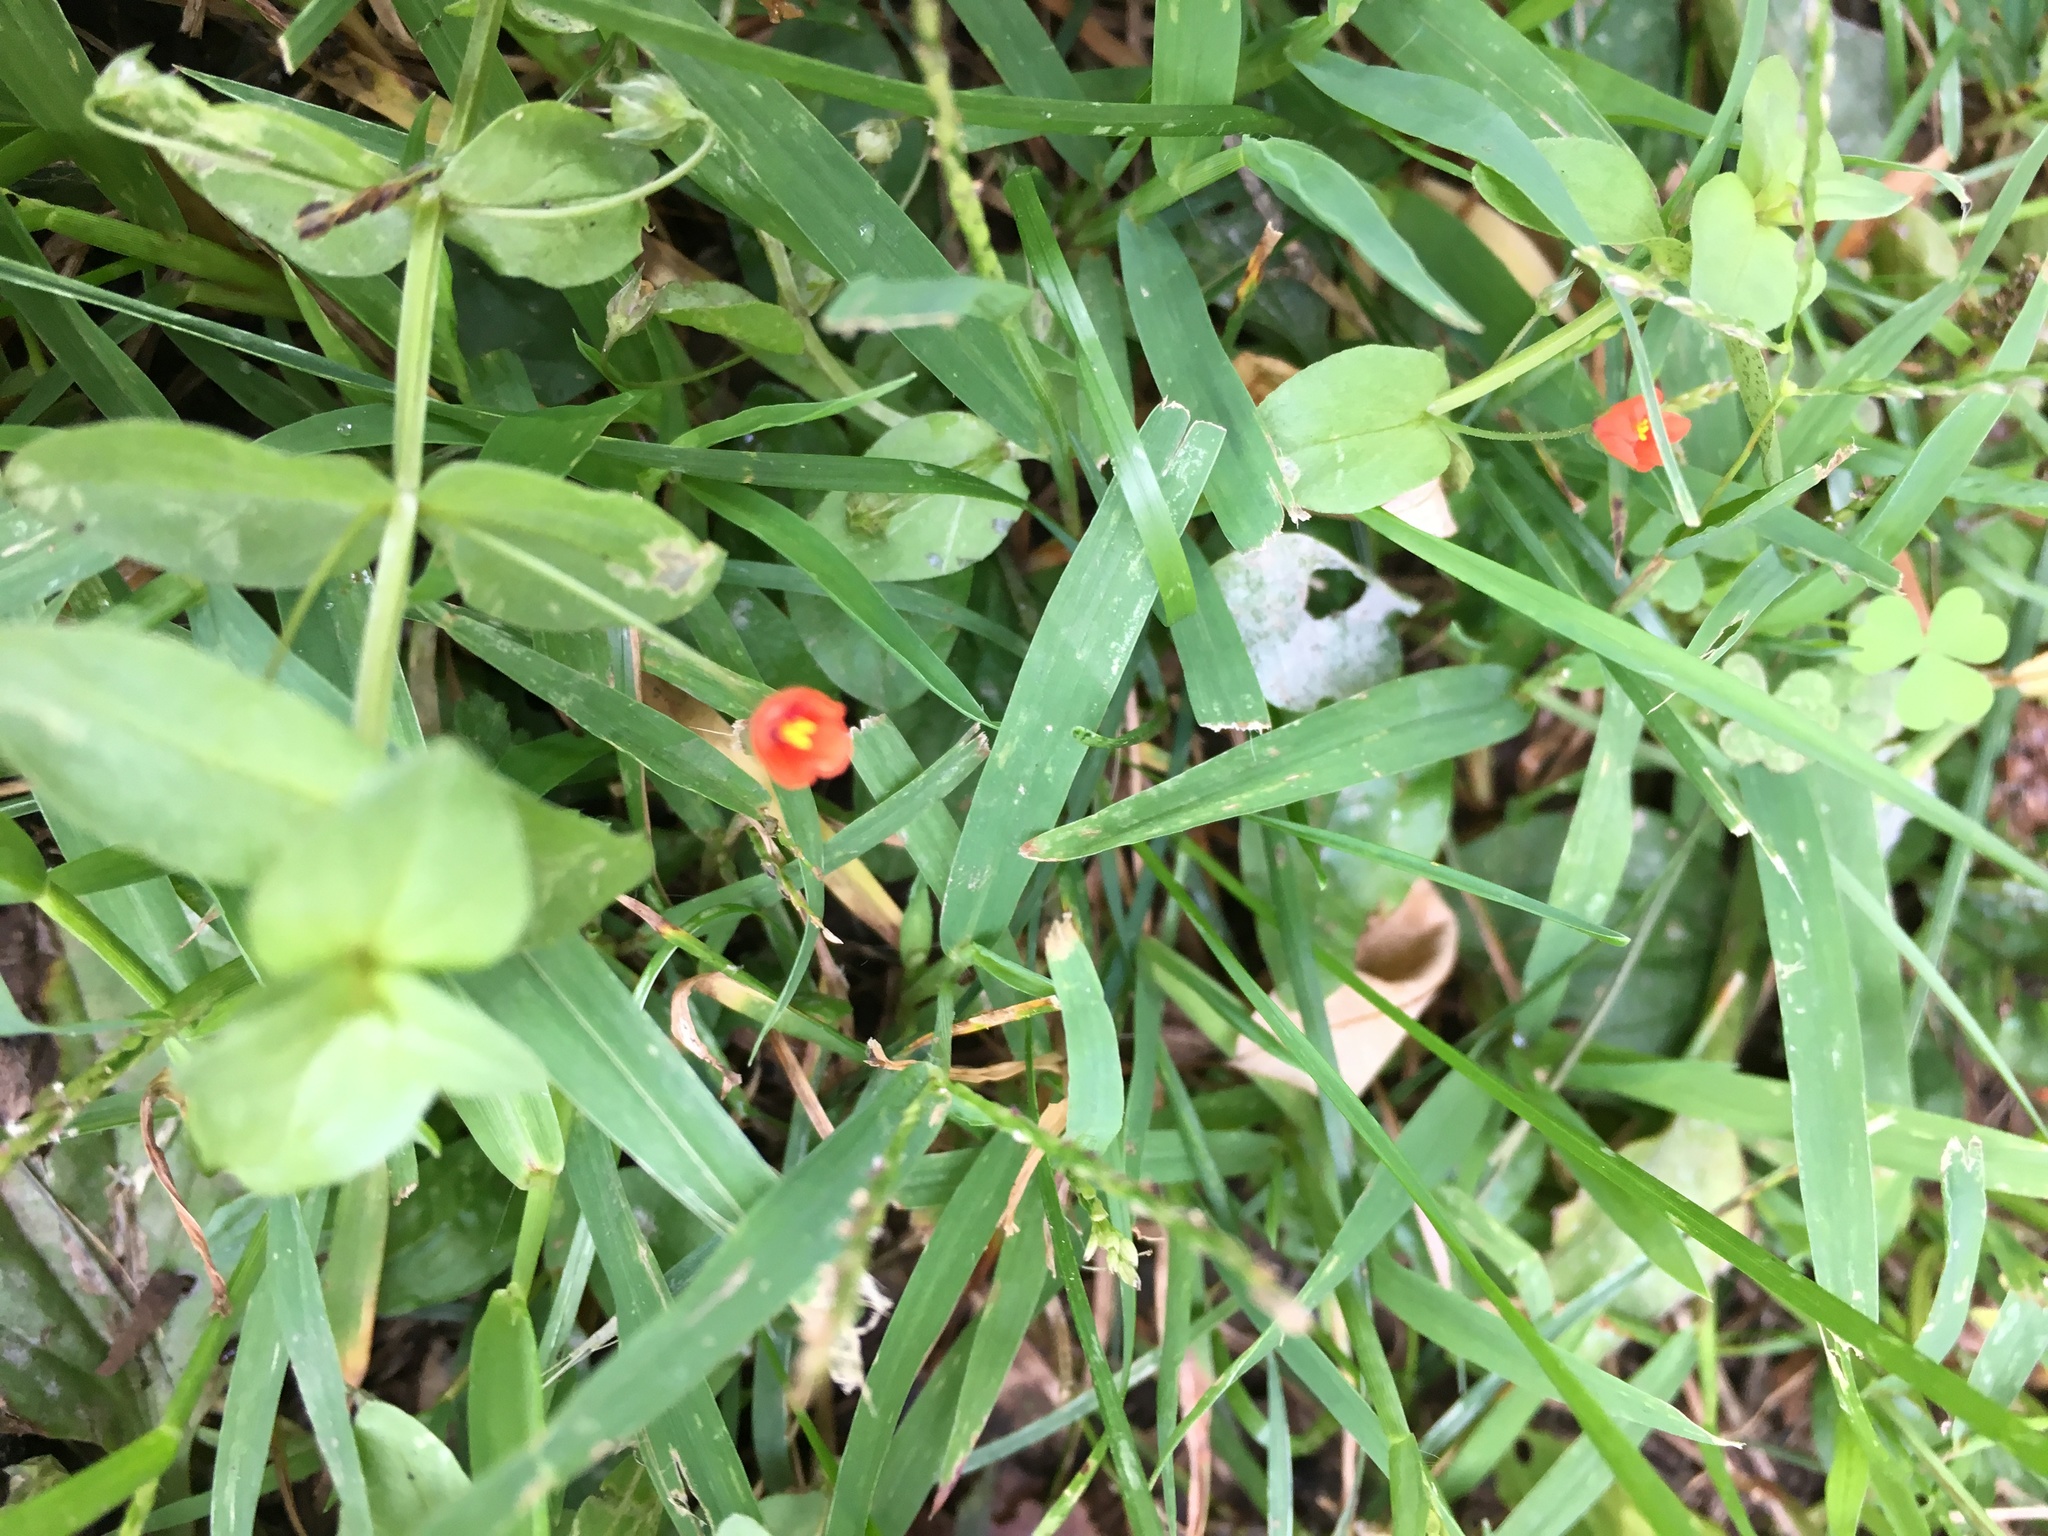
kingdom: Plantae
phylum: Tracheophyta
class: Magnoliopsida
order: Ericales
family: Primulaceae
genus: Lysimachia
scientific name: Lysimachia arvensis
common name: Scarlet pimpernel
